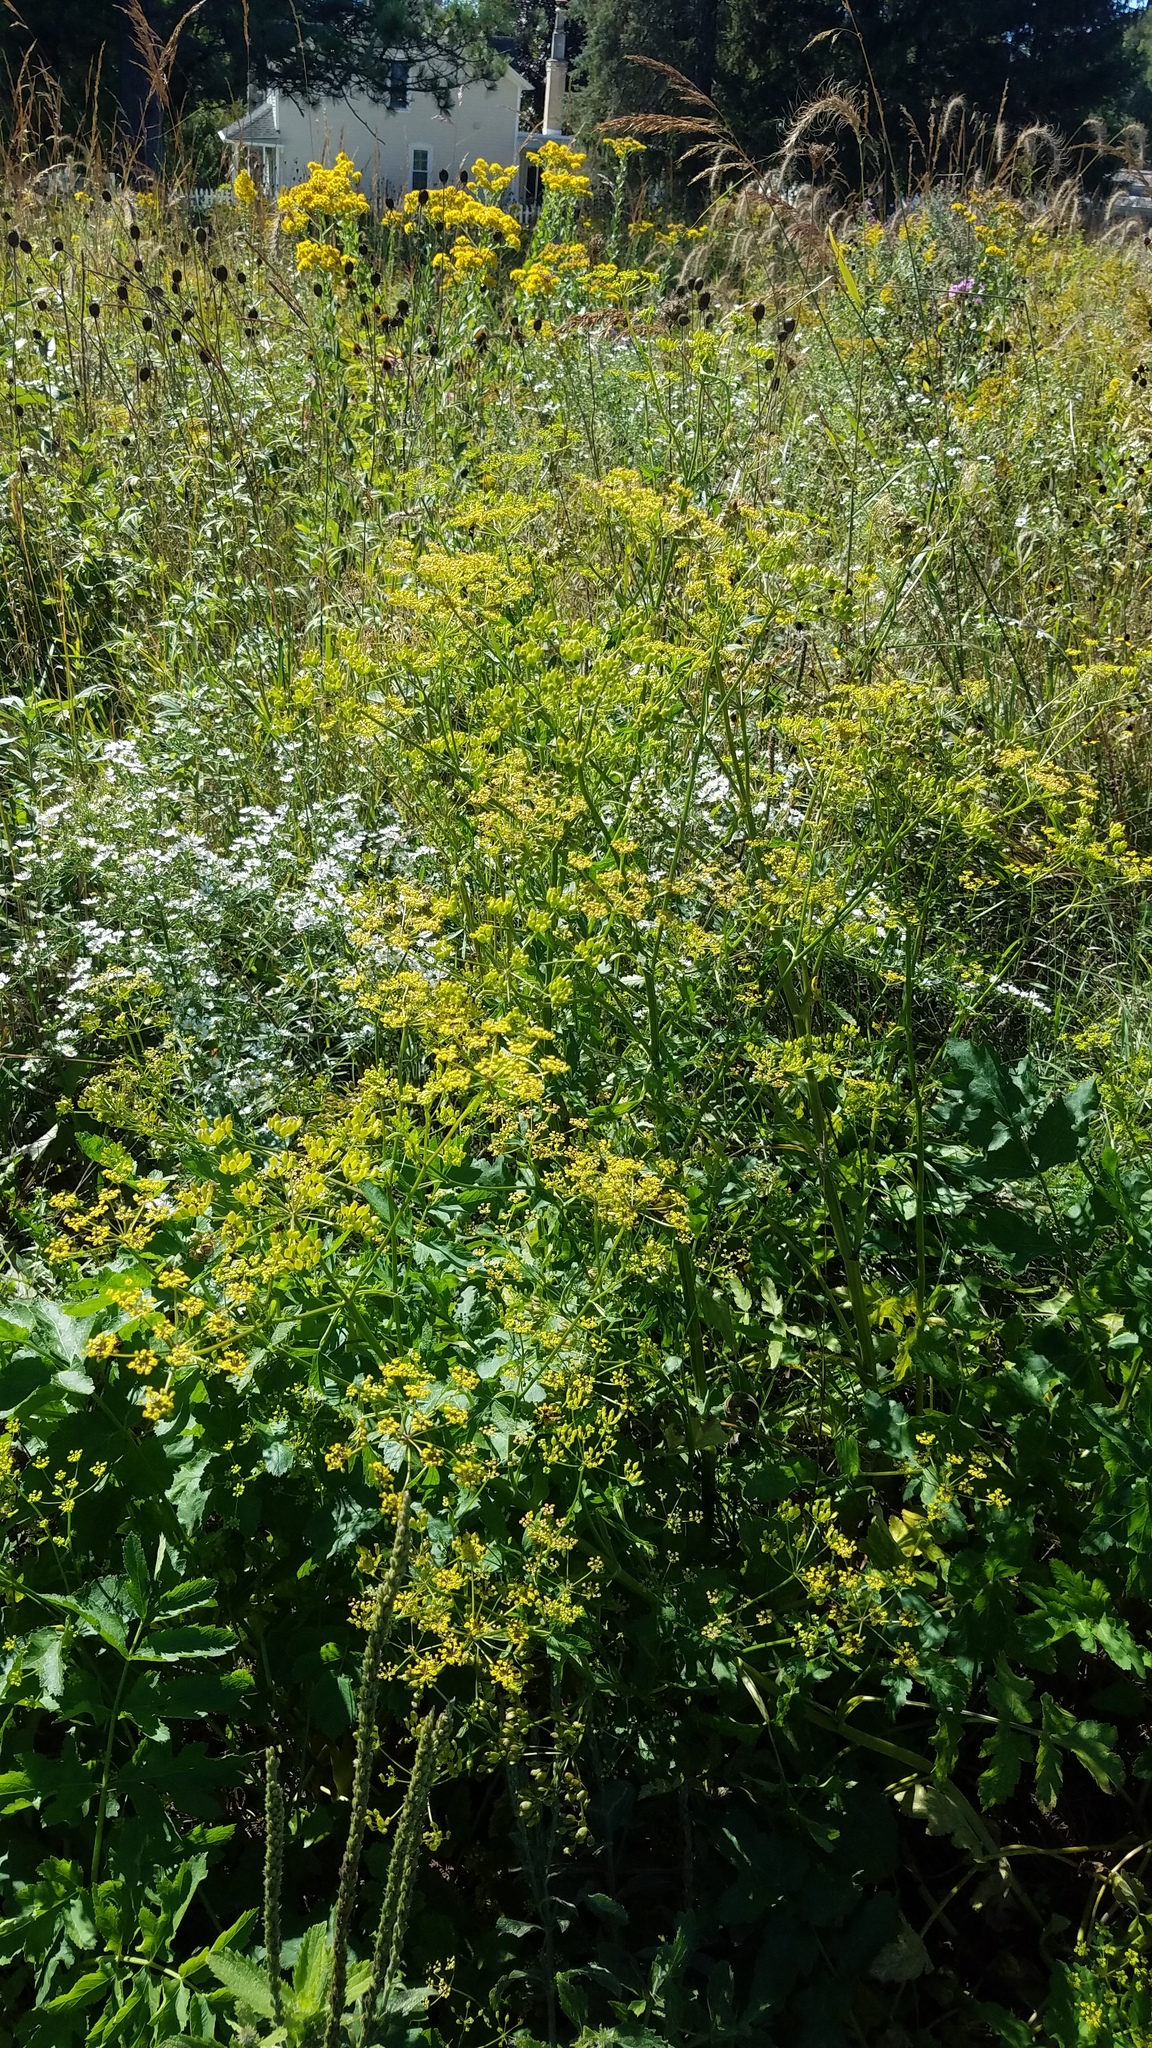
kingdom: Plantae
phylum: Tracheophyta
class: Magnoliopsida
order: Apiales
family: Apiaceae
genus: Pastinaca
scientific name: Pastinaca sativa
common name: Wild parsnip
